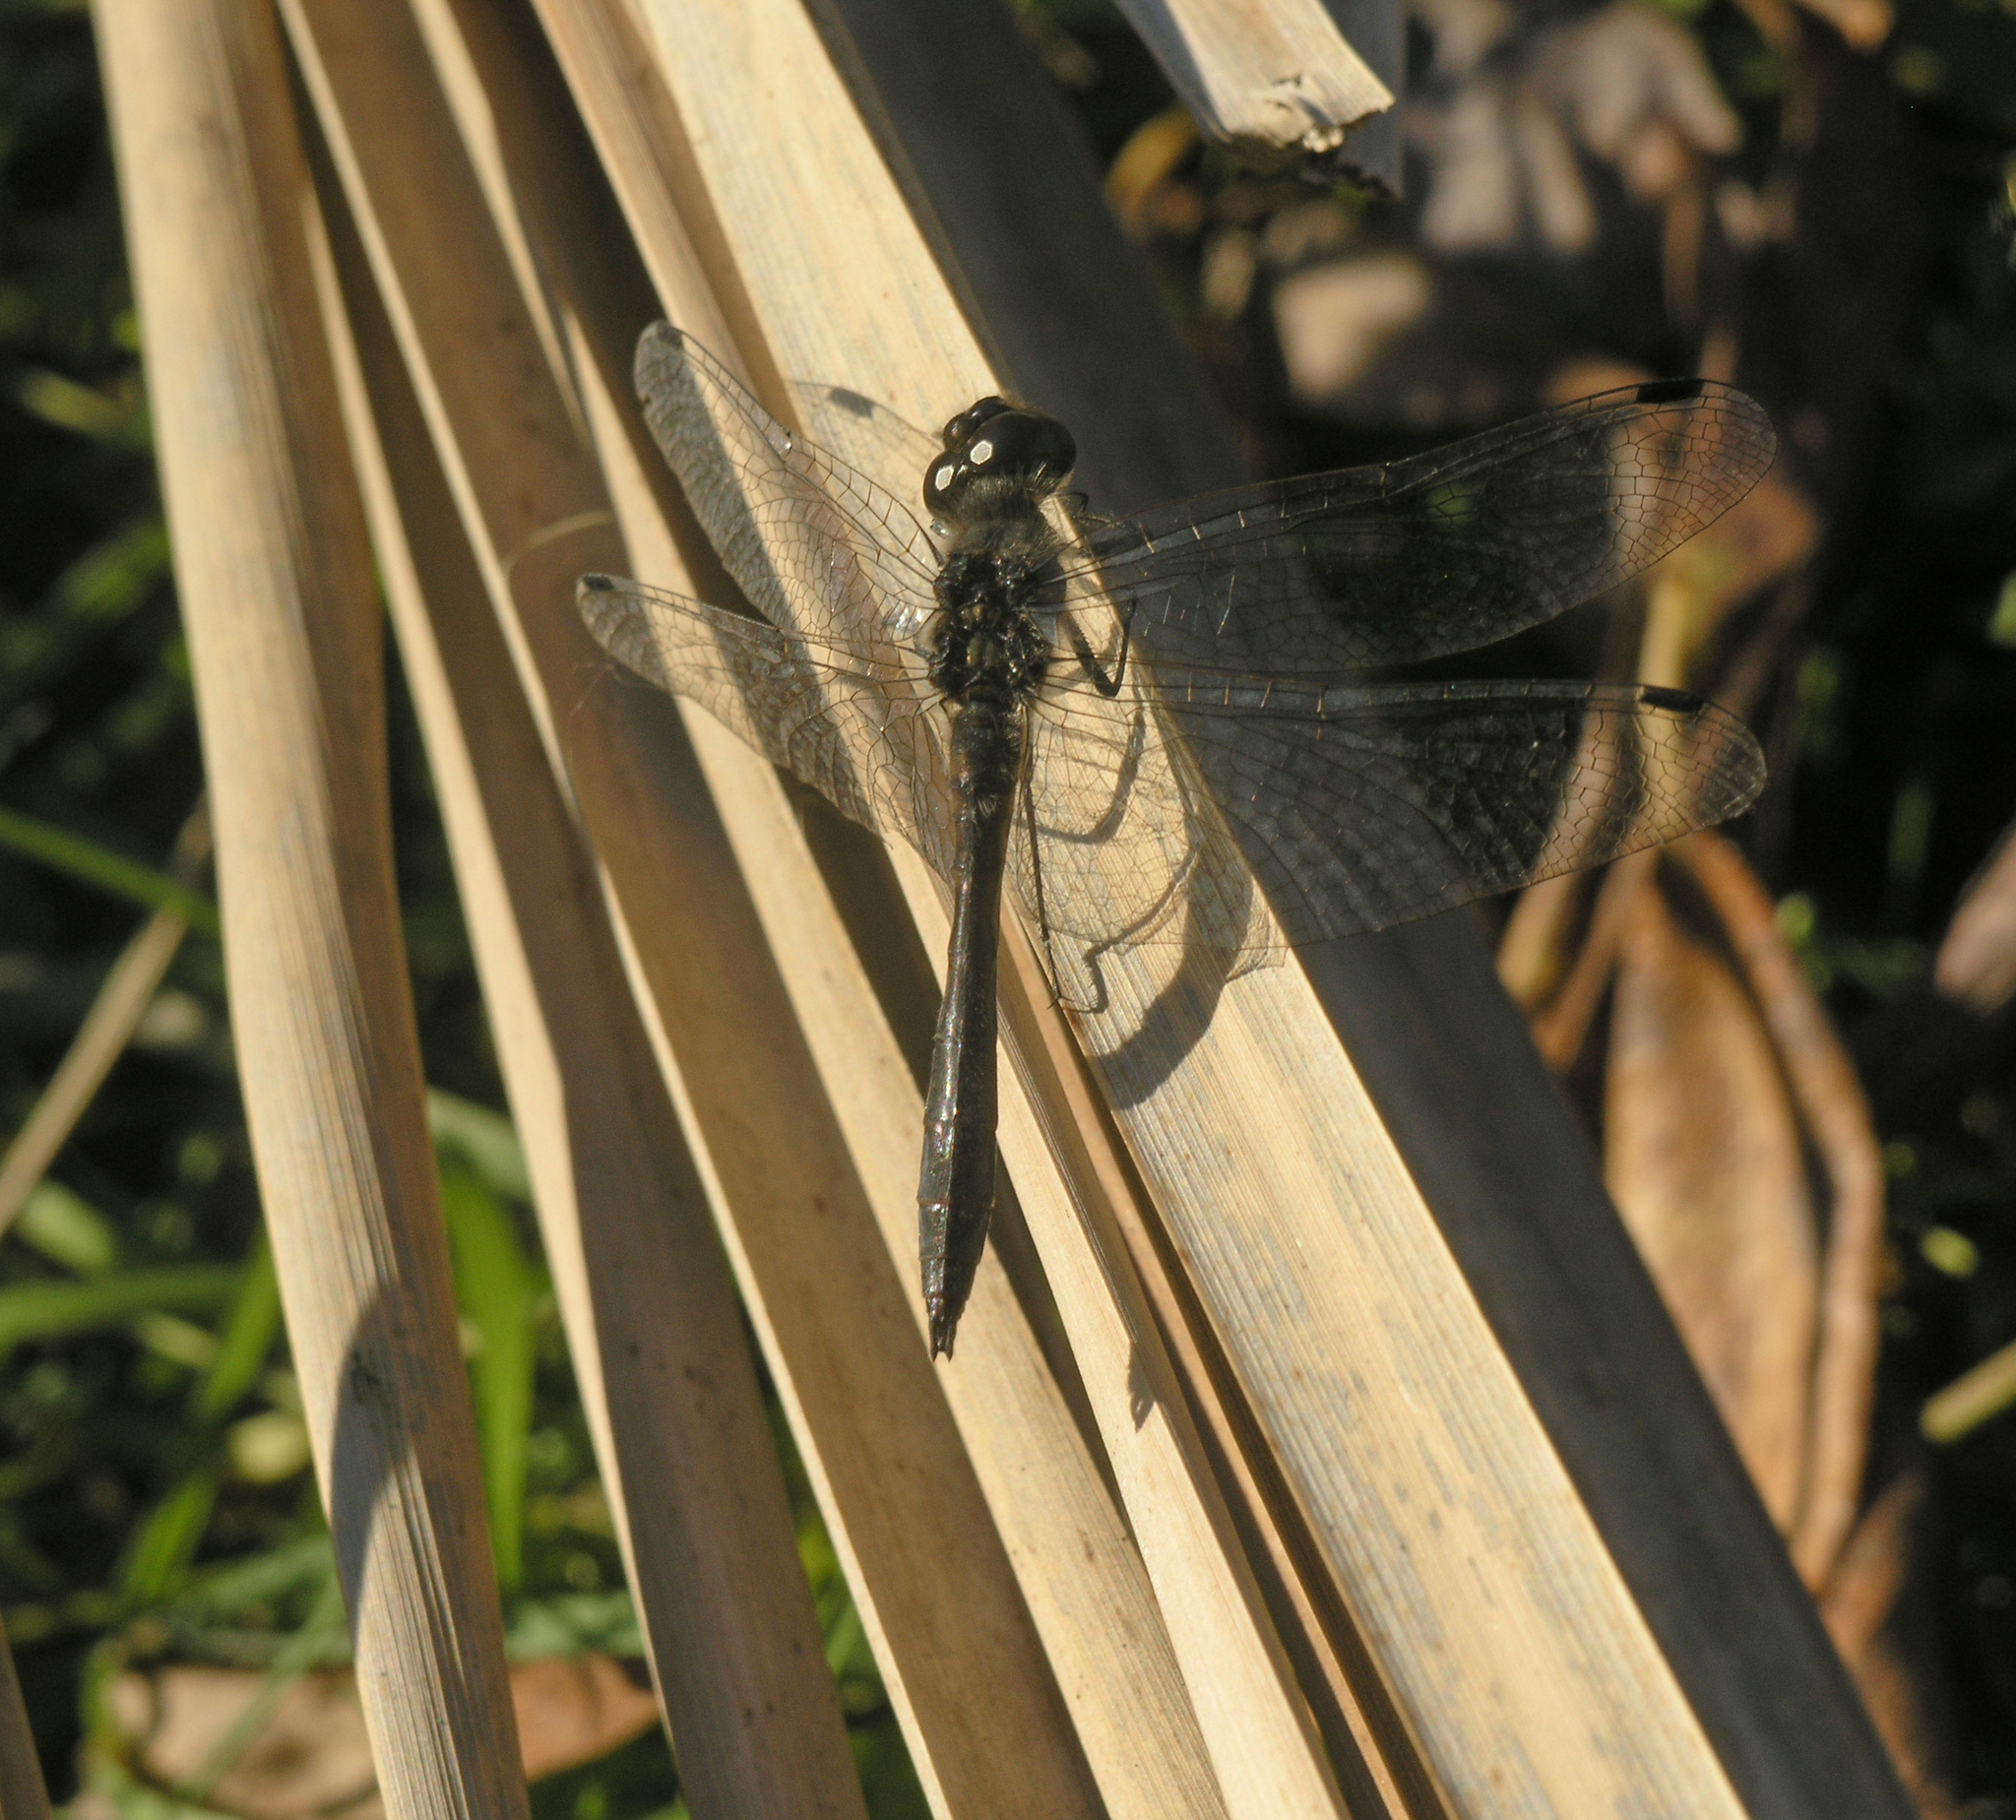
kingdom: Animalia
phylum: Arthropoda
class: Insecta
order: Odonata
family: Libellulidae
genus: Sympetrum
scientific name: Sympetrum danae
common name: Black darter
